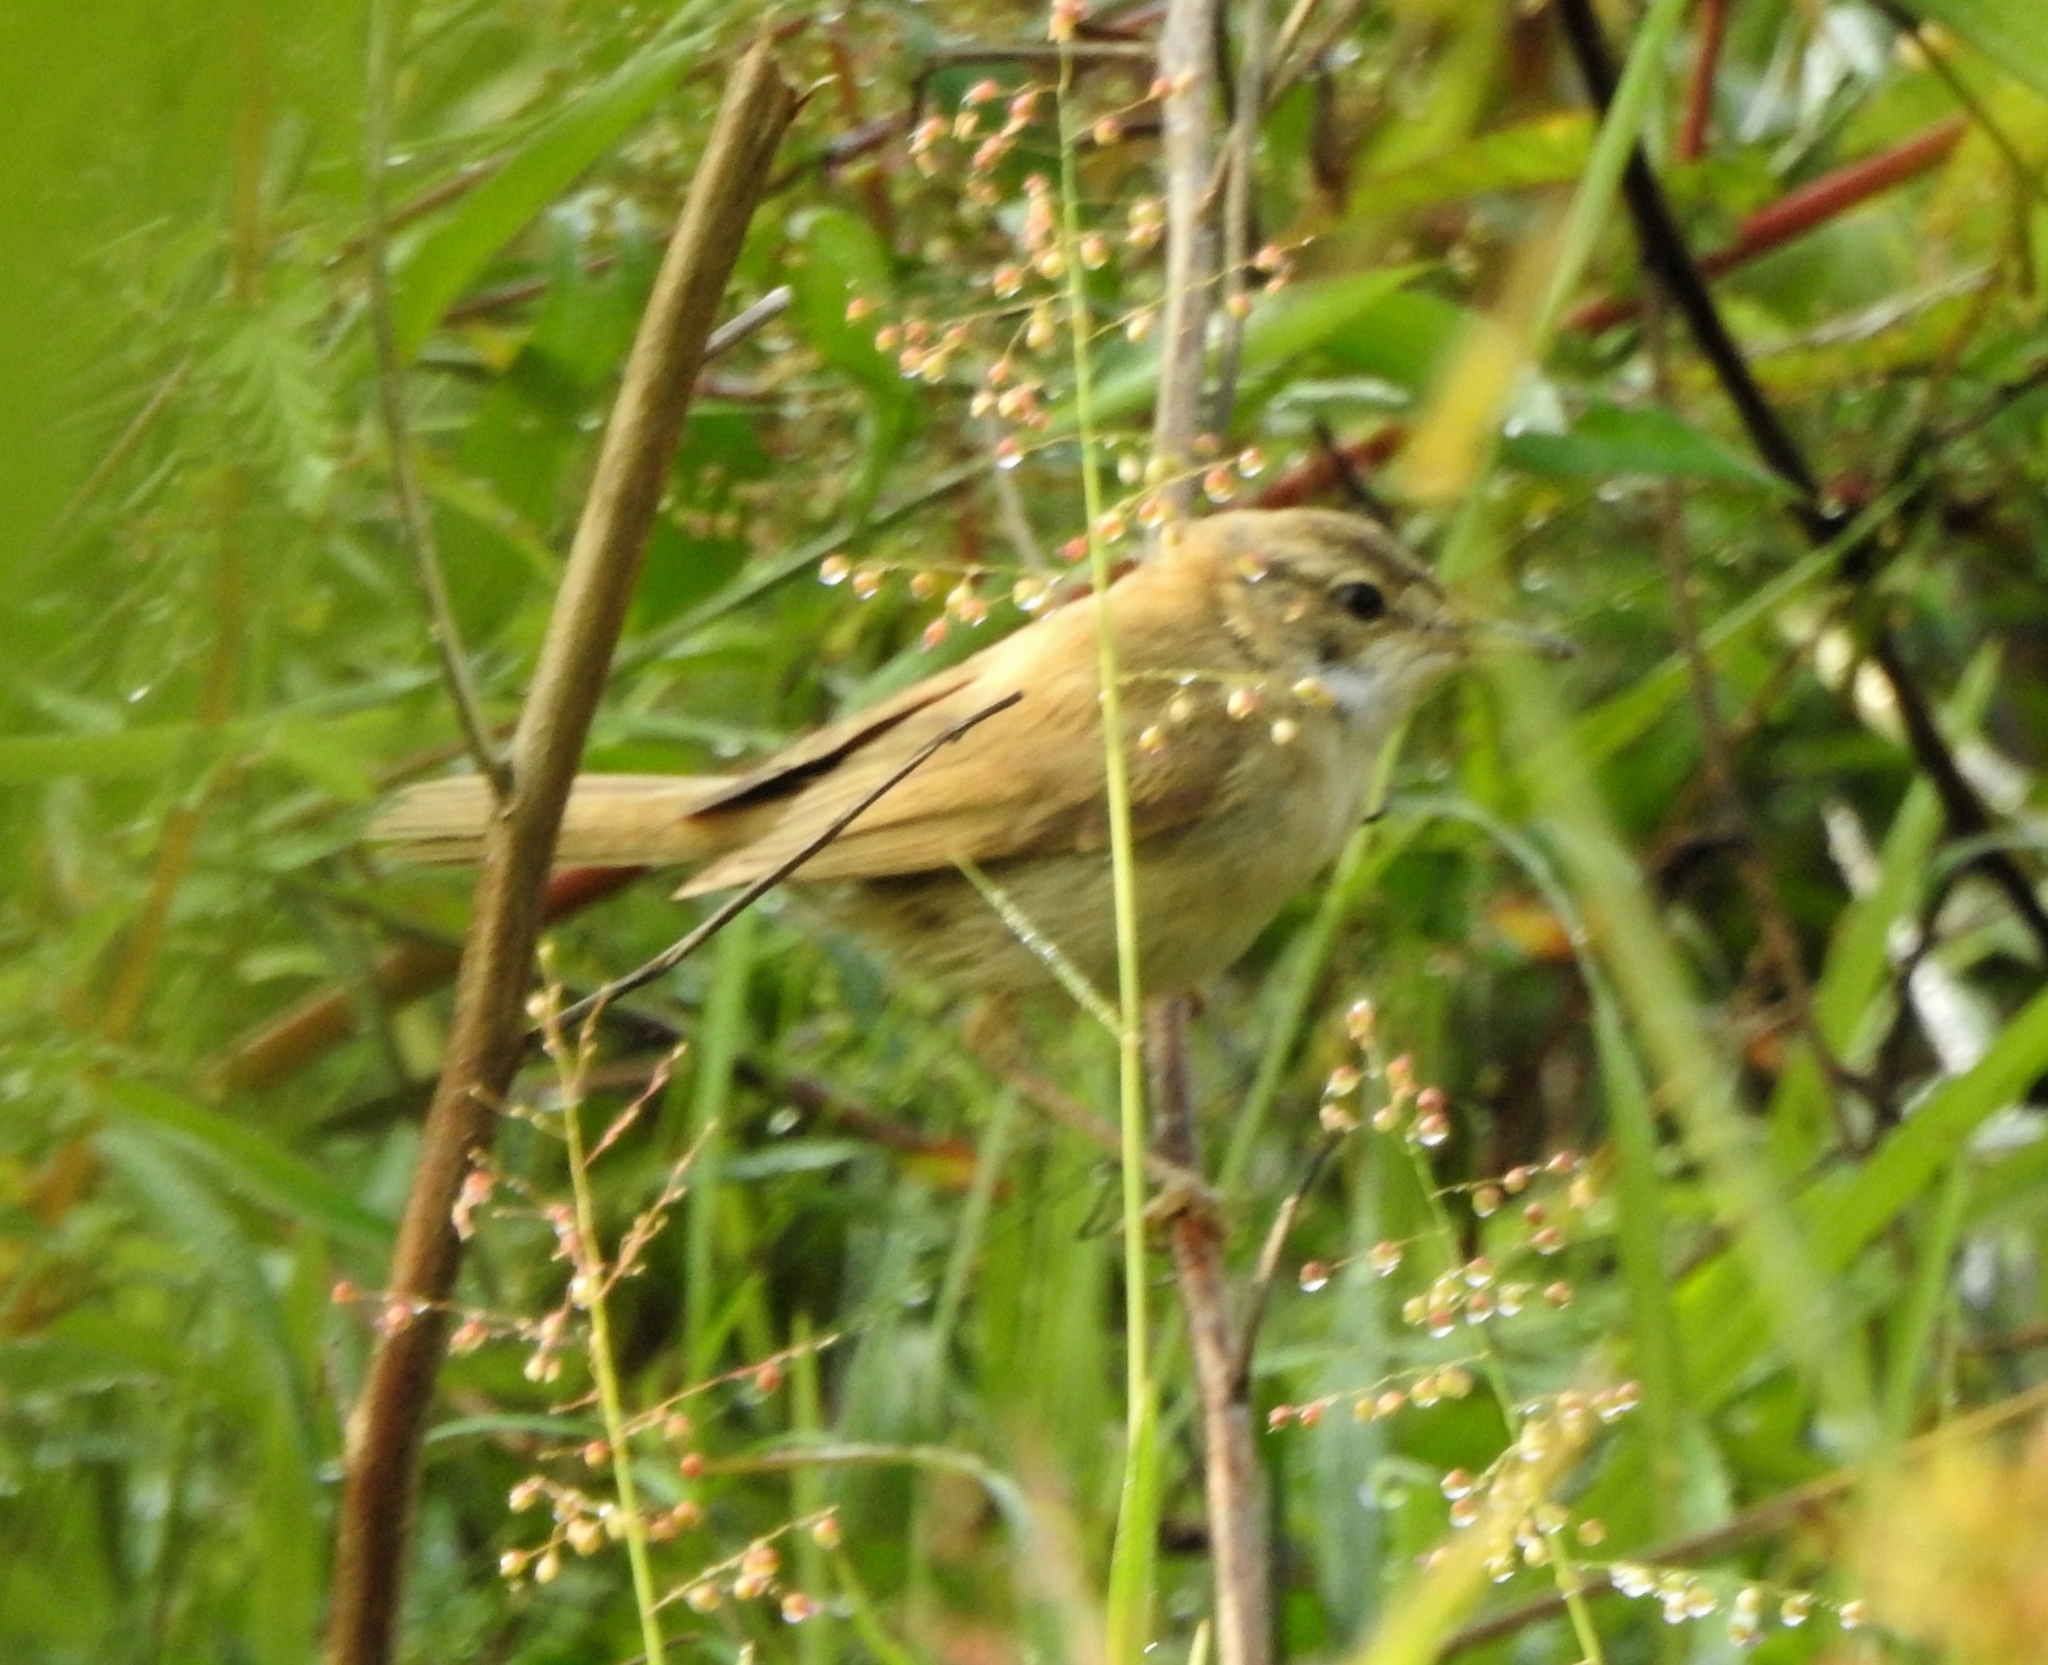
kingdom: Animalia
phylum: Chordata
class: Aves
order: Passeriformes
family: Acrocephalidae
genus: Acrocephalus
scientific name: Acrocephalus agricola
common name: Paddyfield warbler
